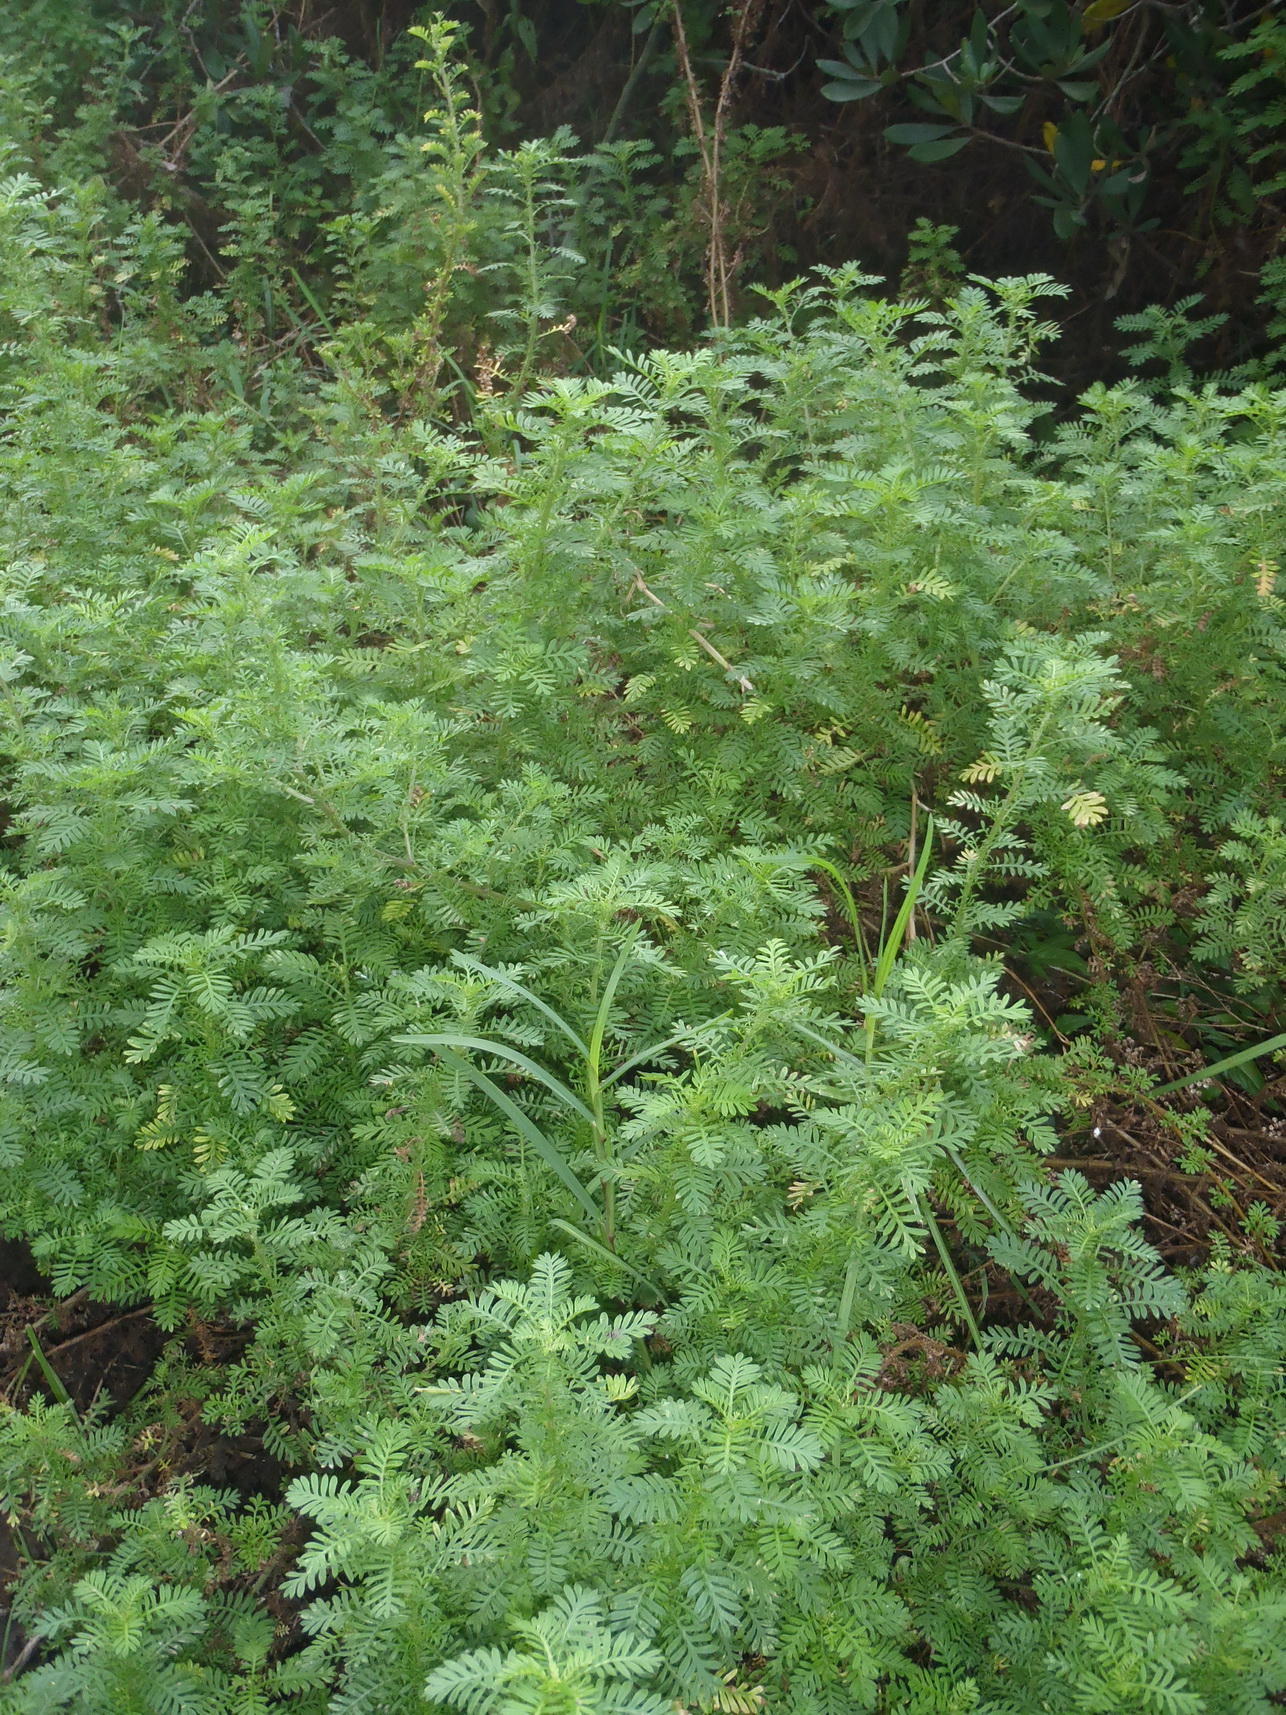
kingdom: Plantae
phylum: Tracheophyta
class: Magnoliopsida
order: Asterales
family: Asteraceae
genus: Hippia
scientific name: Hippia frutescens
